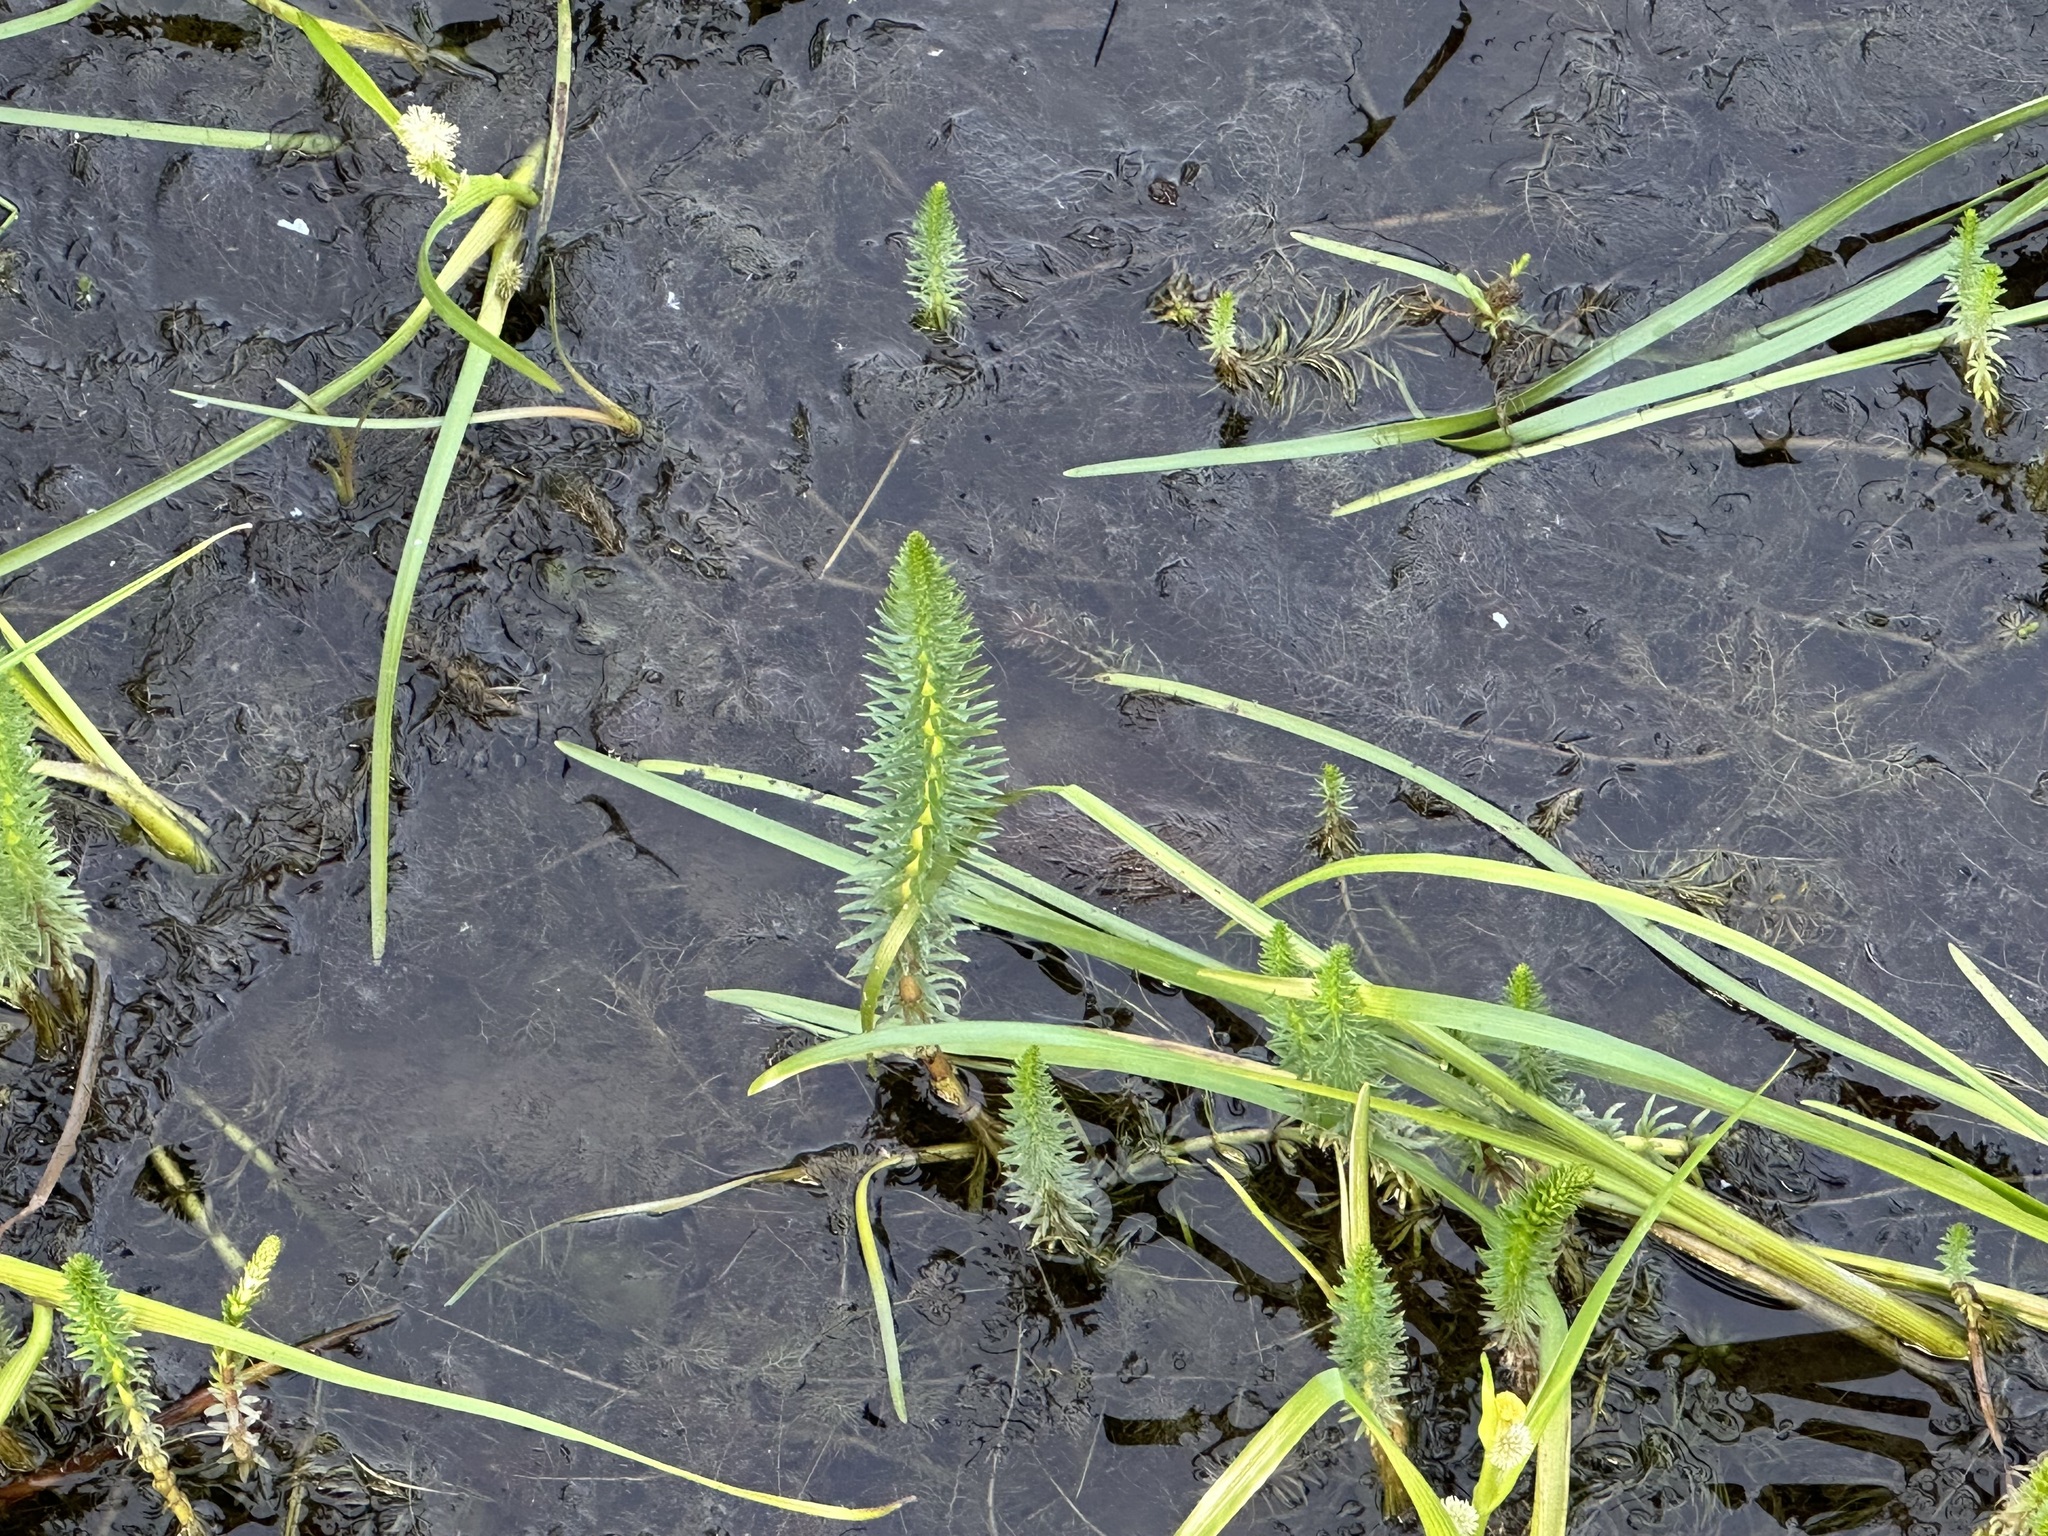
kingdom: Plantae
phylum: Tracheophyta
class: Magnoliopsida
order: Lamiales
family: Plantaginaceae
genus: Hippuris
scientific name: Hippuris vulgaris
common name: Mare's-tail
